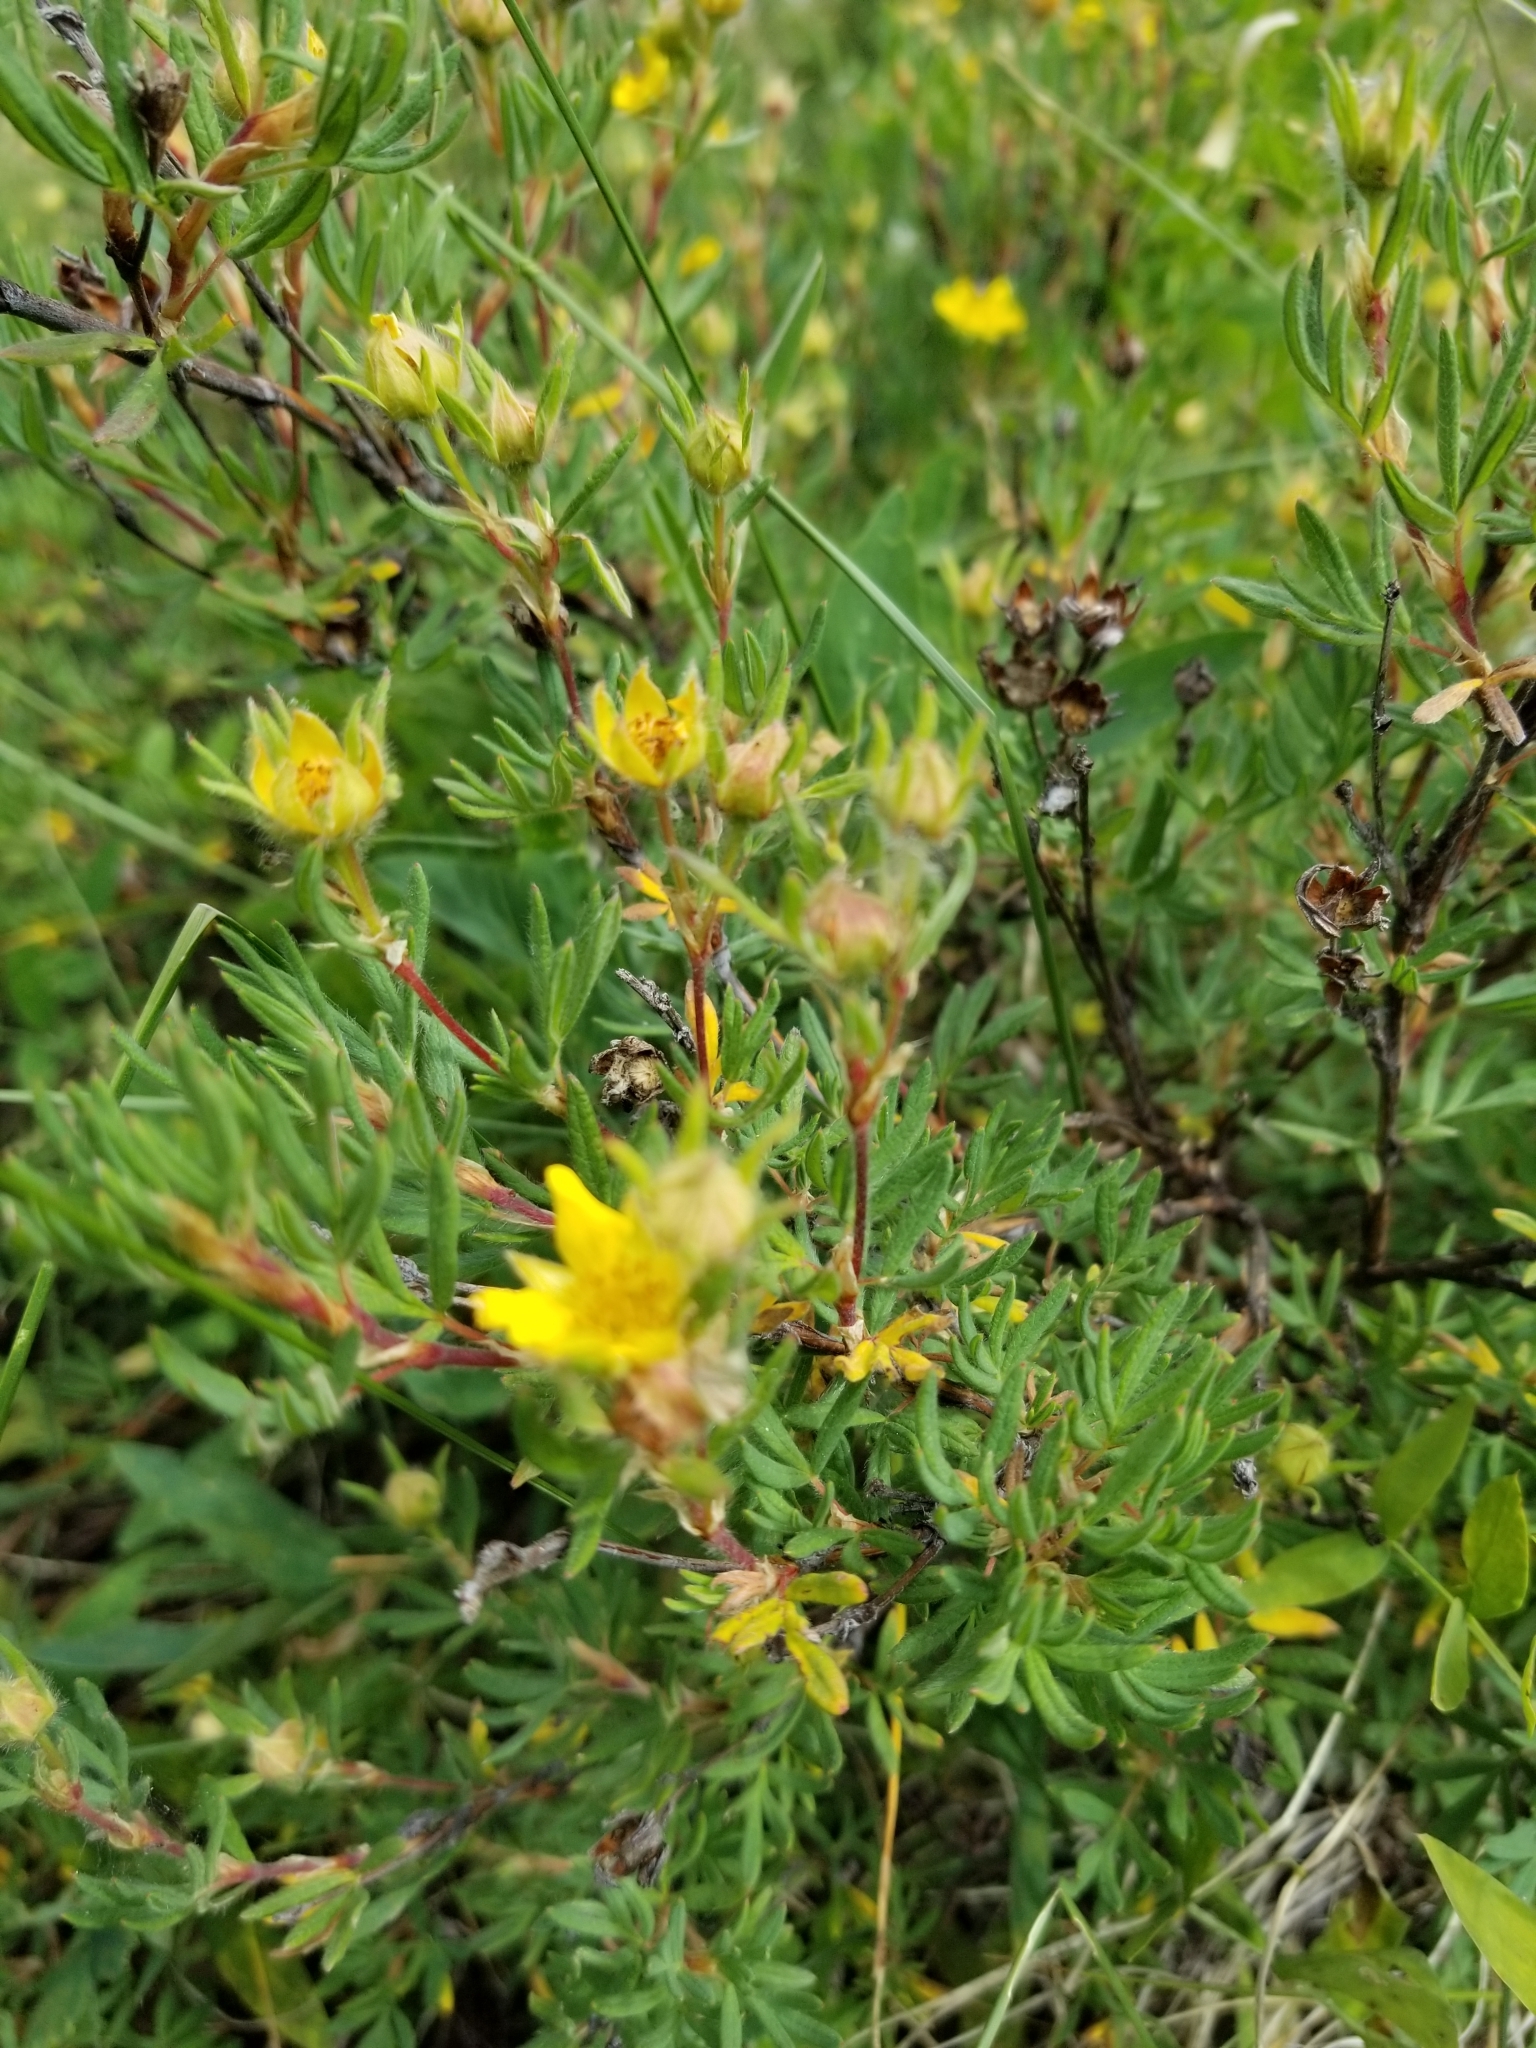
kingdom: Plantae
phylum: Tracheophyta
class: Magnoliopsida
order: Rosales
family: Rosaceae
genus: Dasiphora
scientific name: Dasiphora fruticosa
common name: Shrubby cinquefoil
